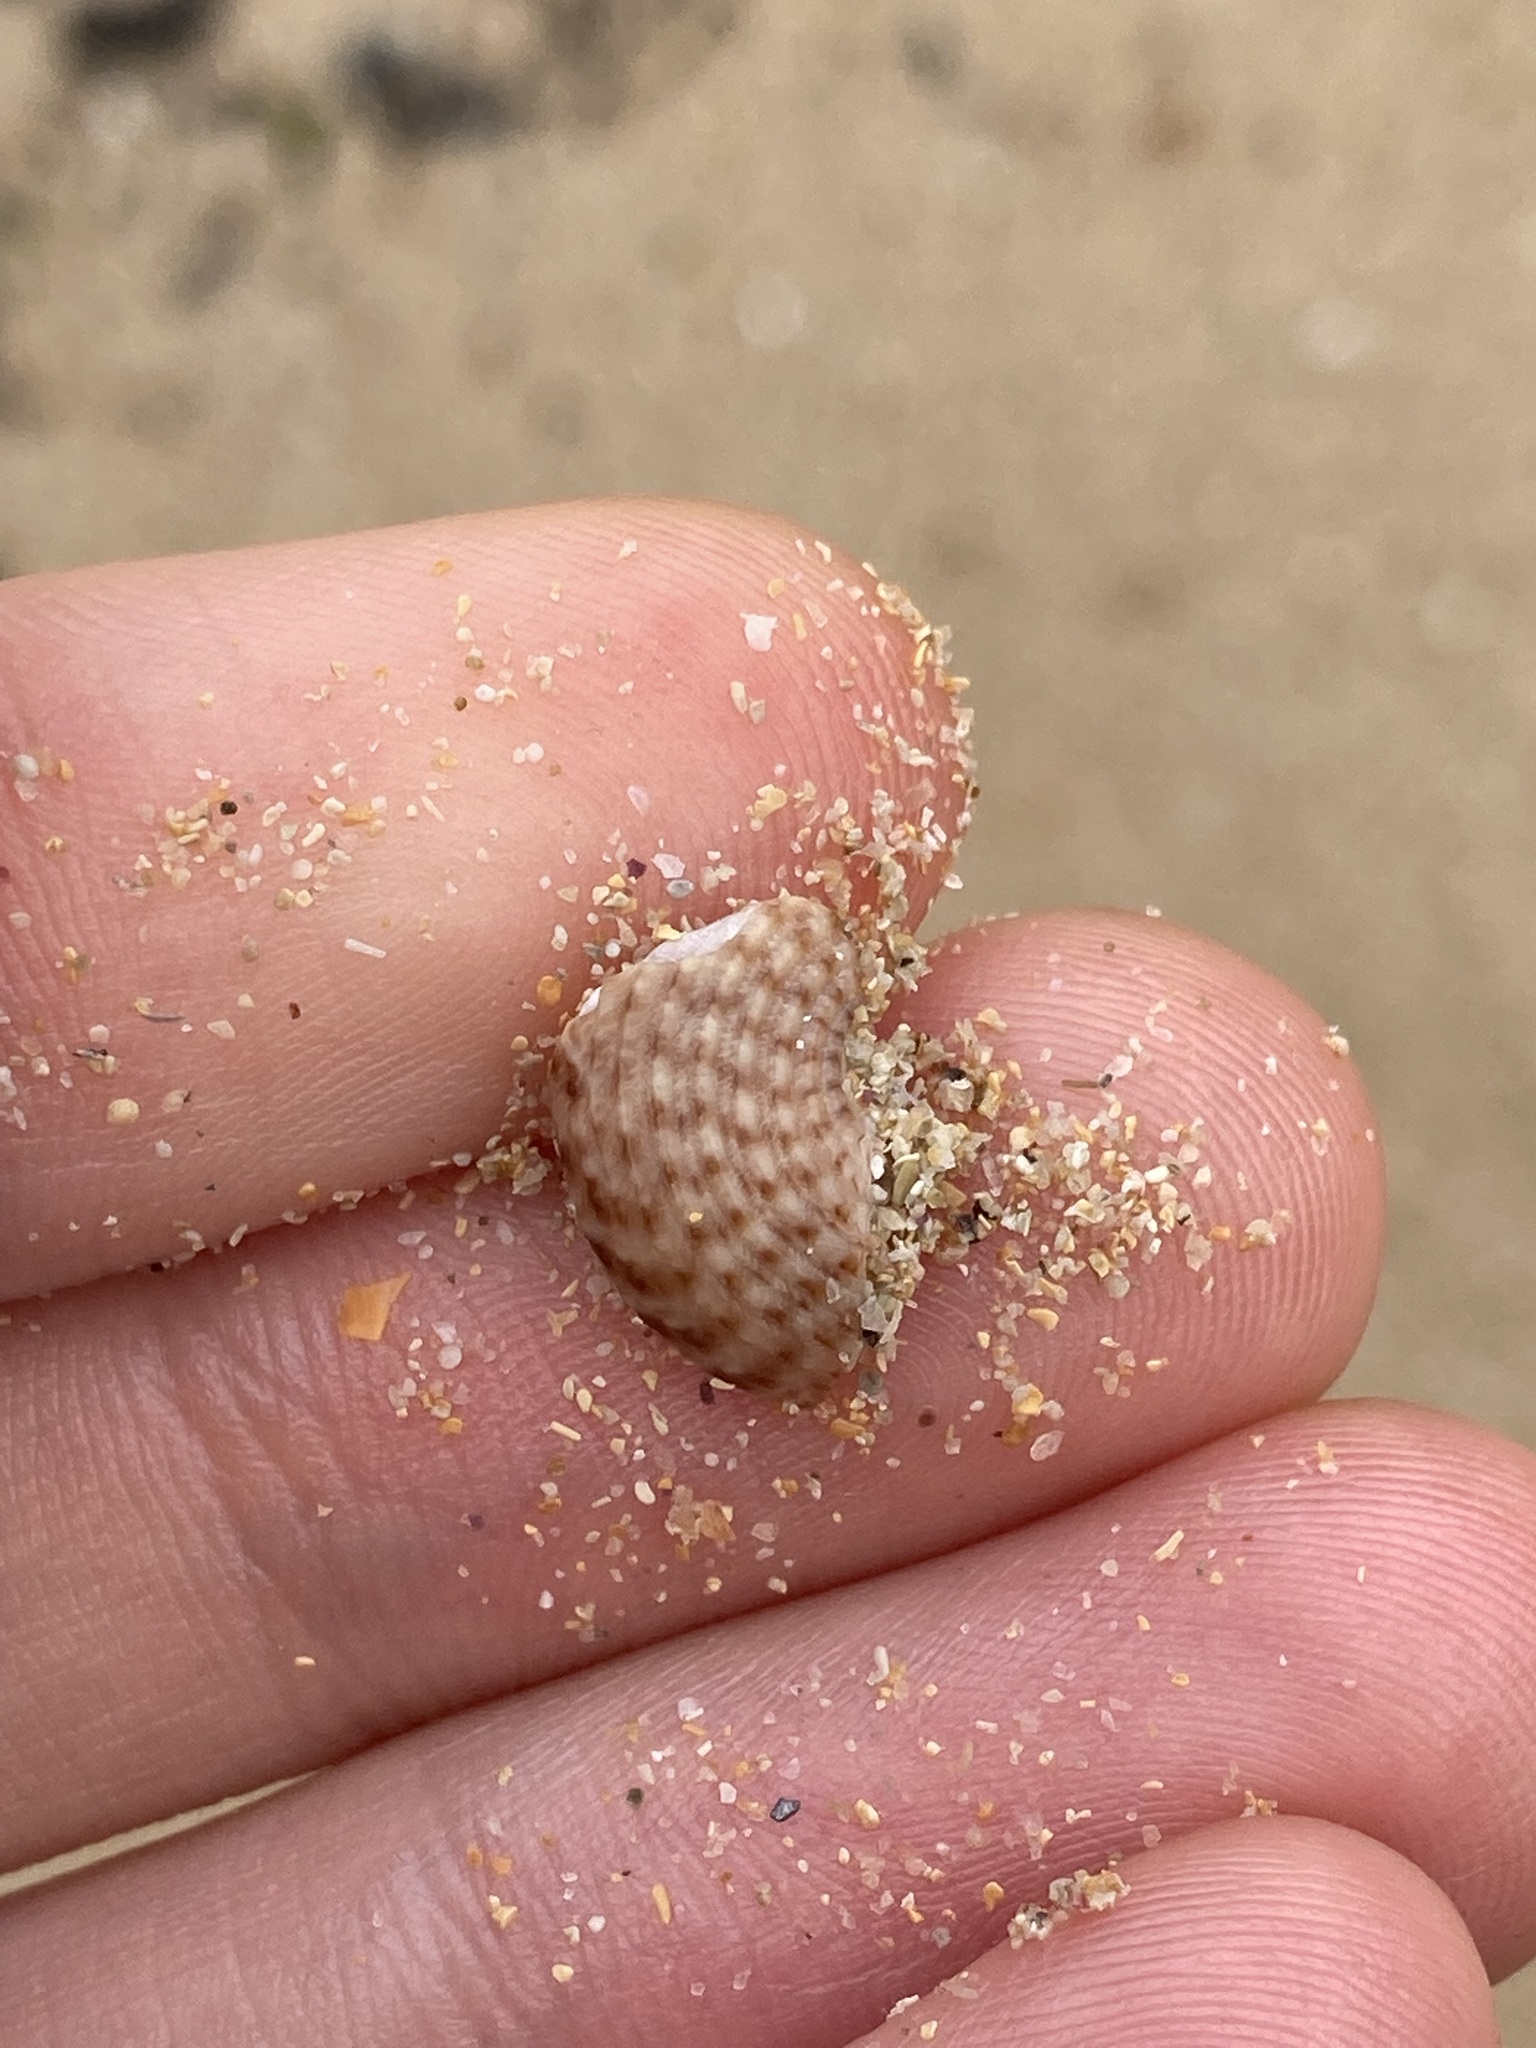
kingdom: Animalia
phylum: Mollusca
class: Gastropoda
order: Trochida
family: Trochidae
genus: Calthalotia
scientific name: Calthalotia fragum
